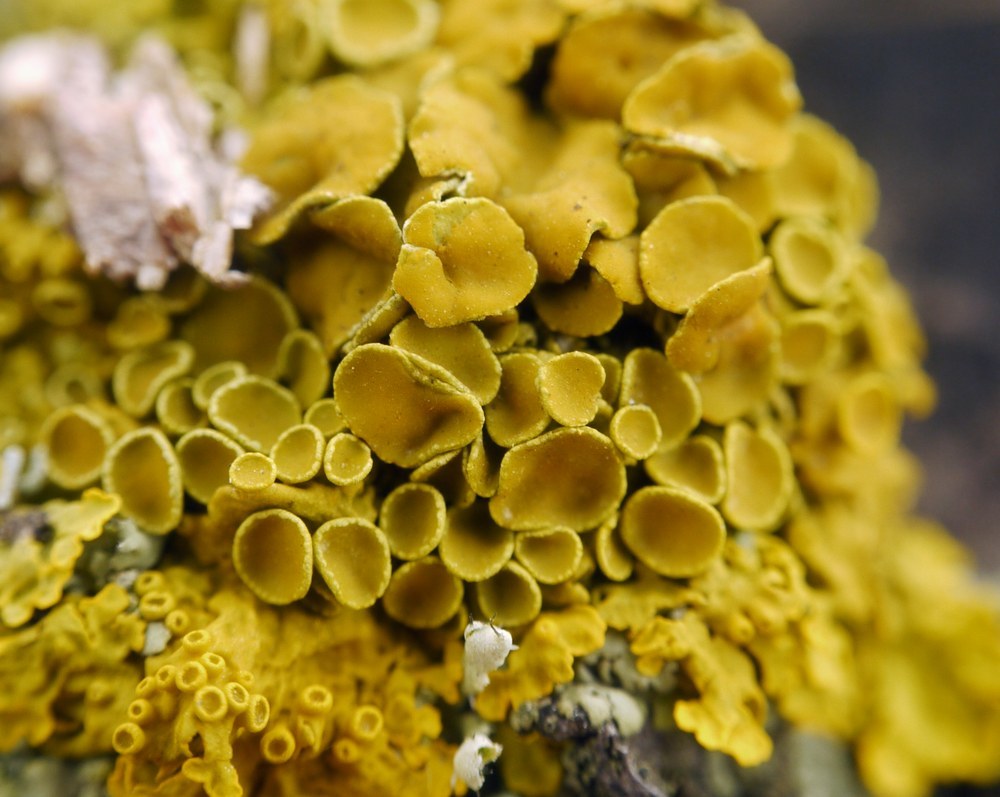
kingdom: Fungi
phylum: Ascomycota
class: Lecanoromycetes
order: Teloschistales
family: Teloschistaceae
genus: Xanthoria
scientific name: Xanthoria parietina
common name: Common orange lichen
